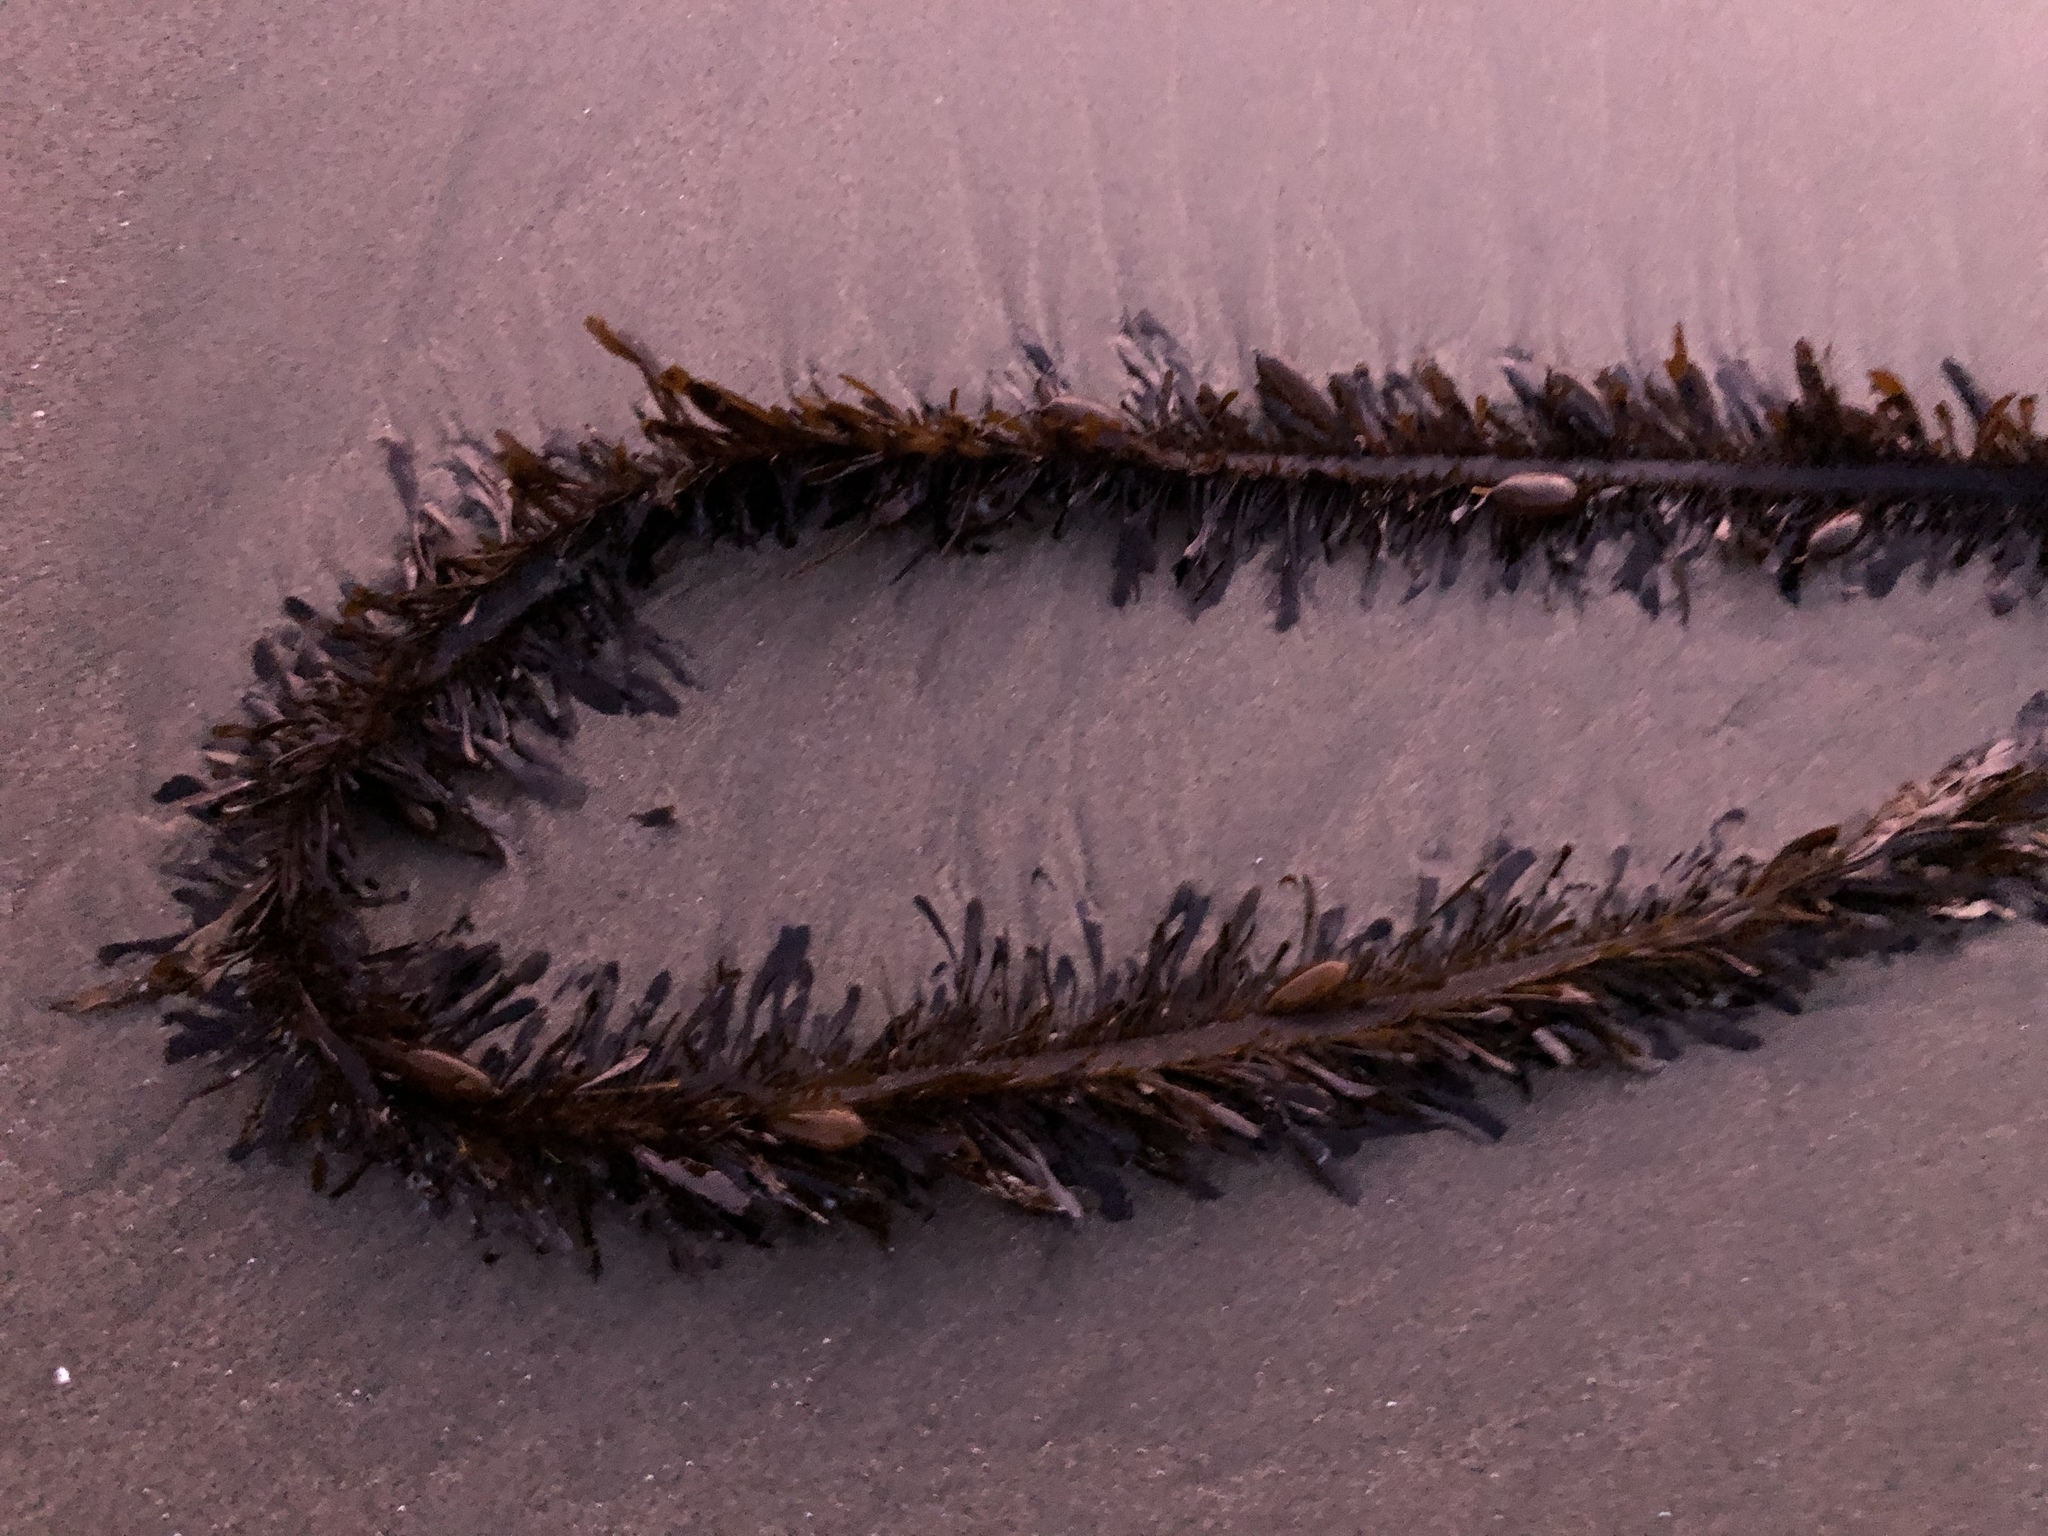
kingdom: Chromista
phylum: Ochrophyta
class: Phaeophyceae
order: Laminariales
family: Lessoniaceae
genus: Egregia
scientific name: Egregia menziesii
